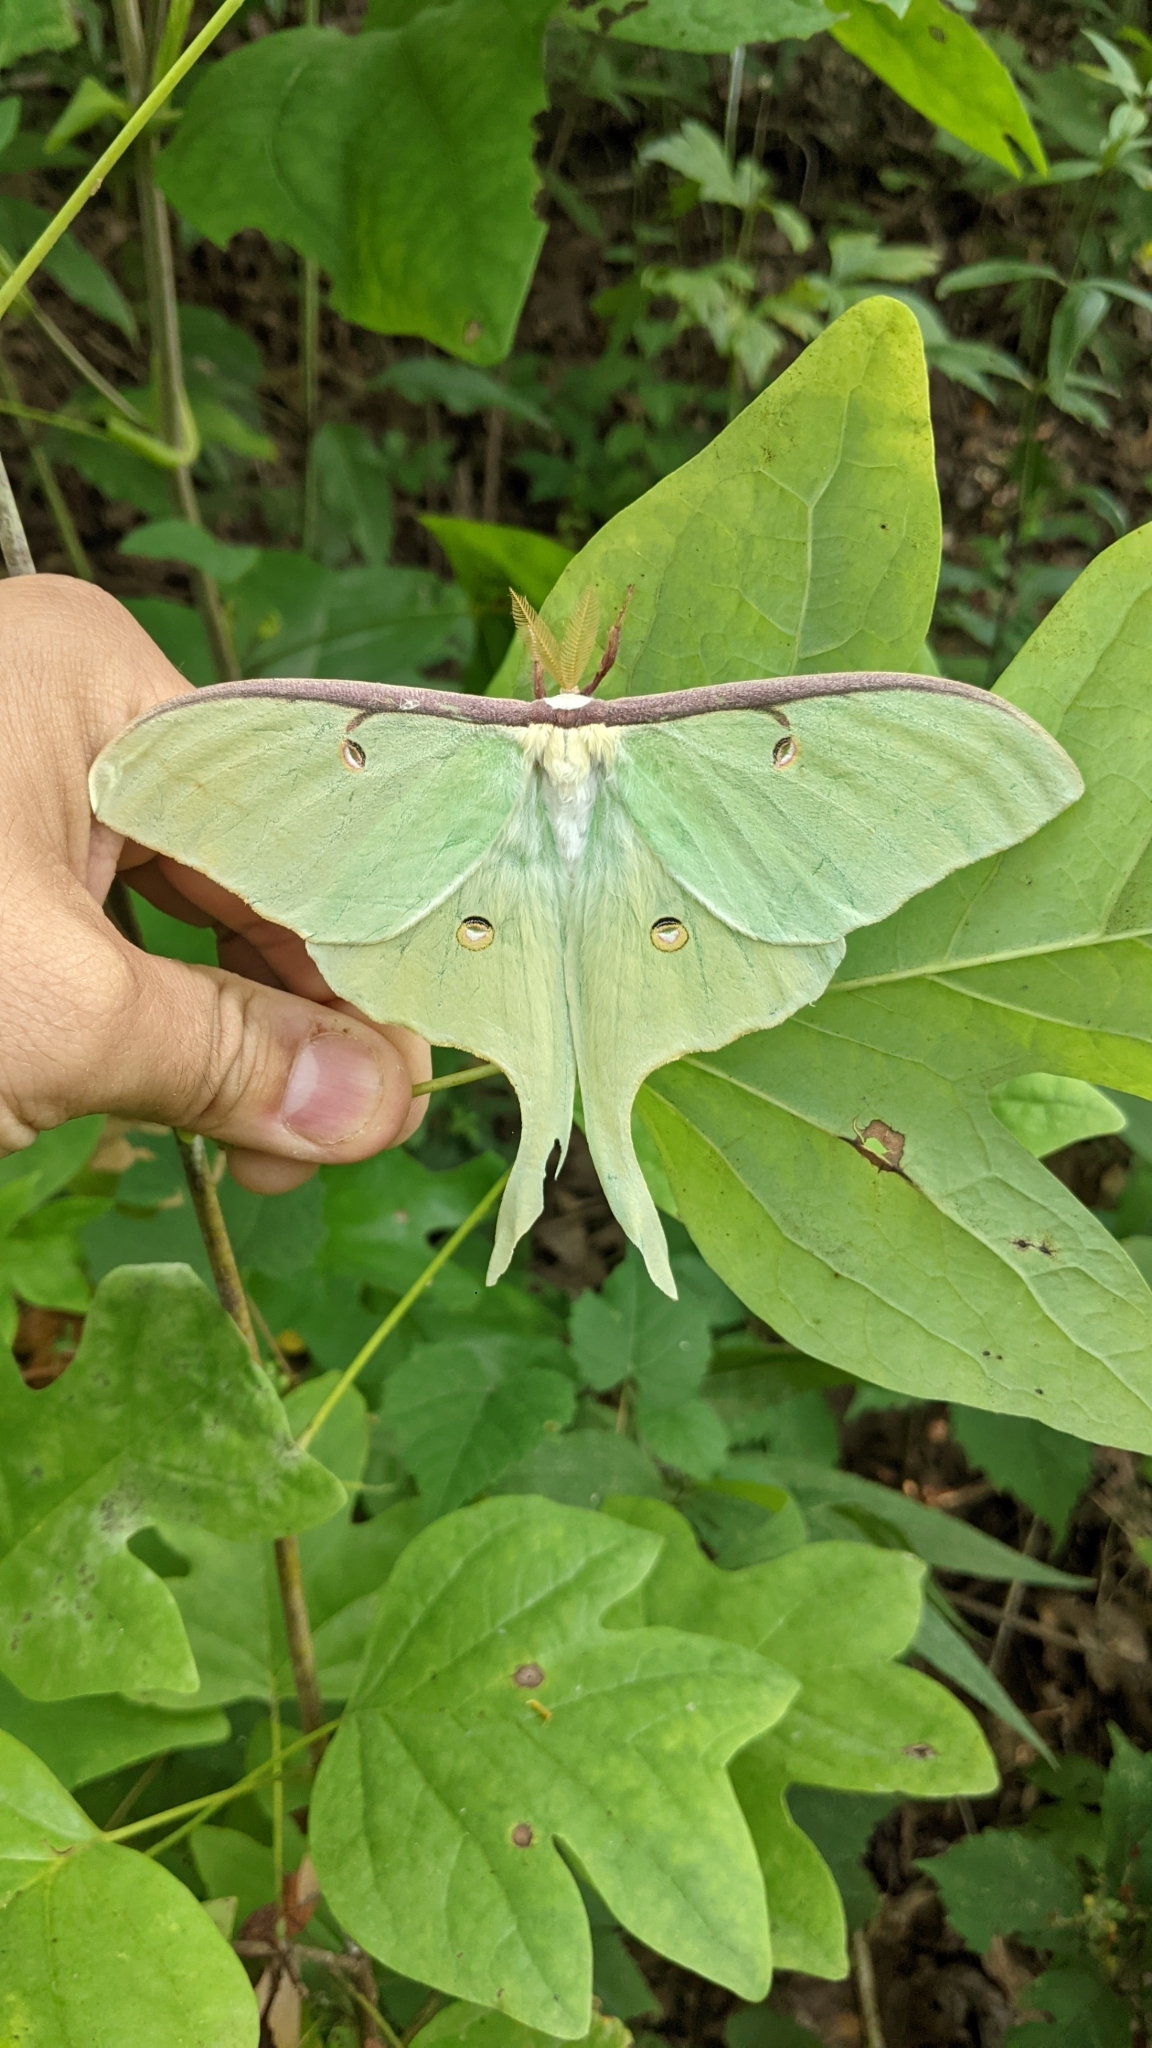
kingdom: Animalia
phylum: Arthropoda
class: Insecta
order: Lepidoptera
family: Saturniidae
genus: Actias
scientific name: Actias luna
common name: Luna moth
